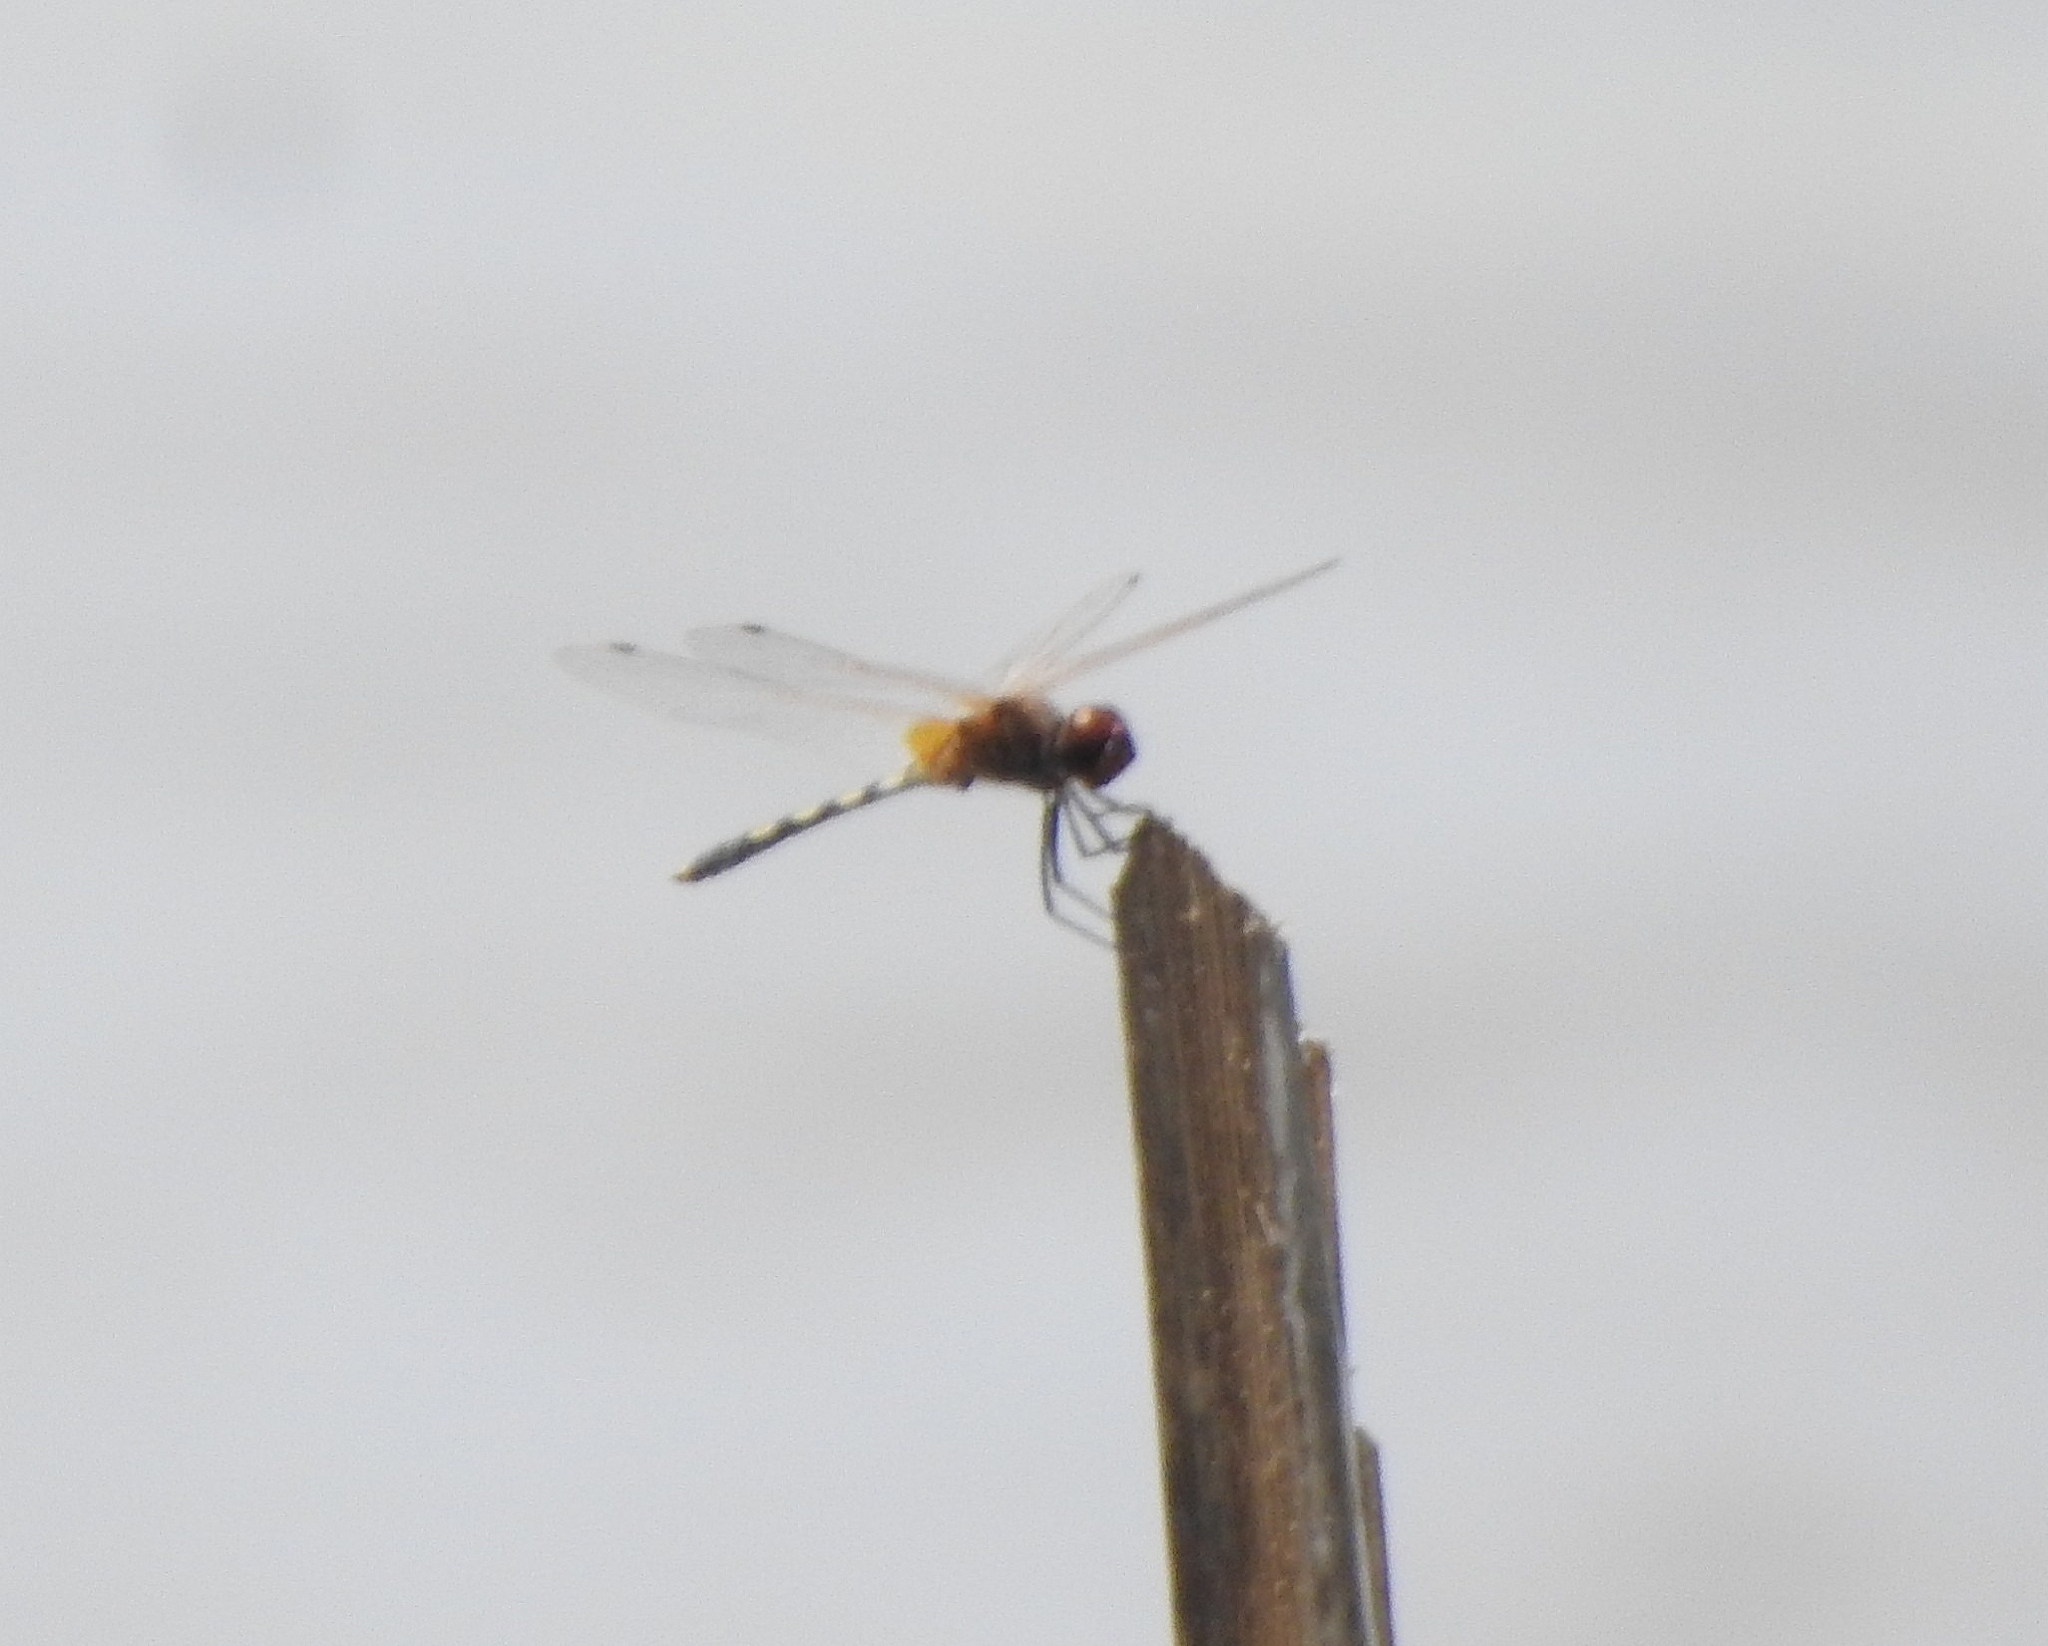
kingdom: Animalia
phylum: Arthropoda
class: Insecta
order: Odonata
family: Libellulidae
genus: Trithemis
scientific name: Trithemis pallidinervis
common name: Dancing dropwing
